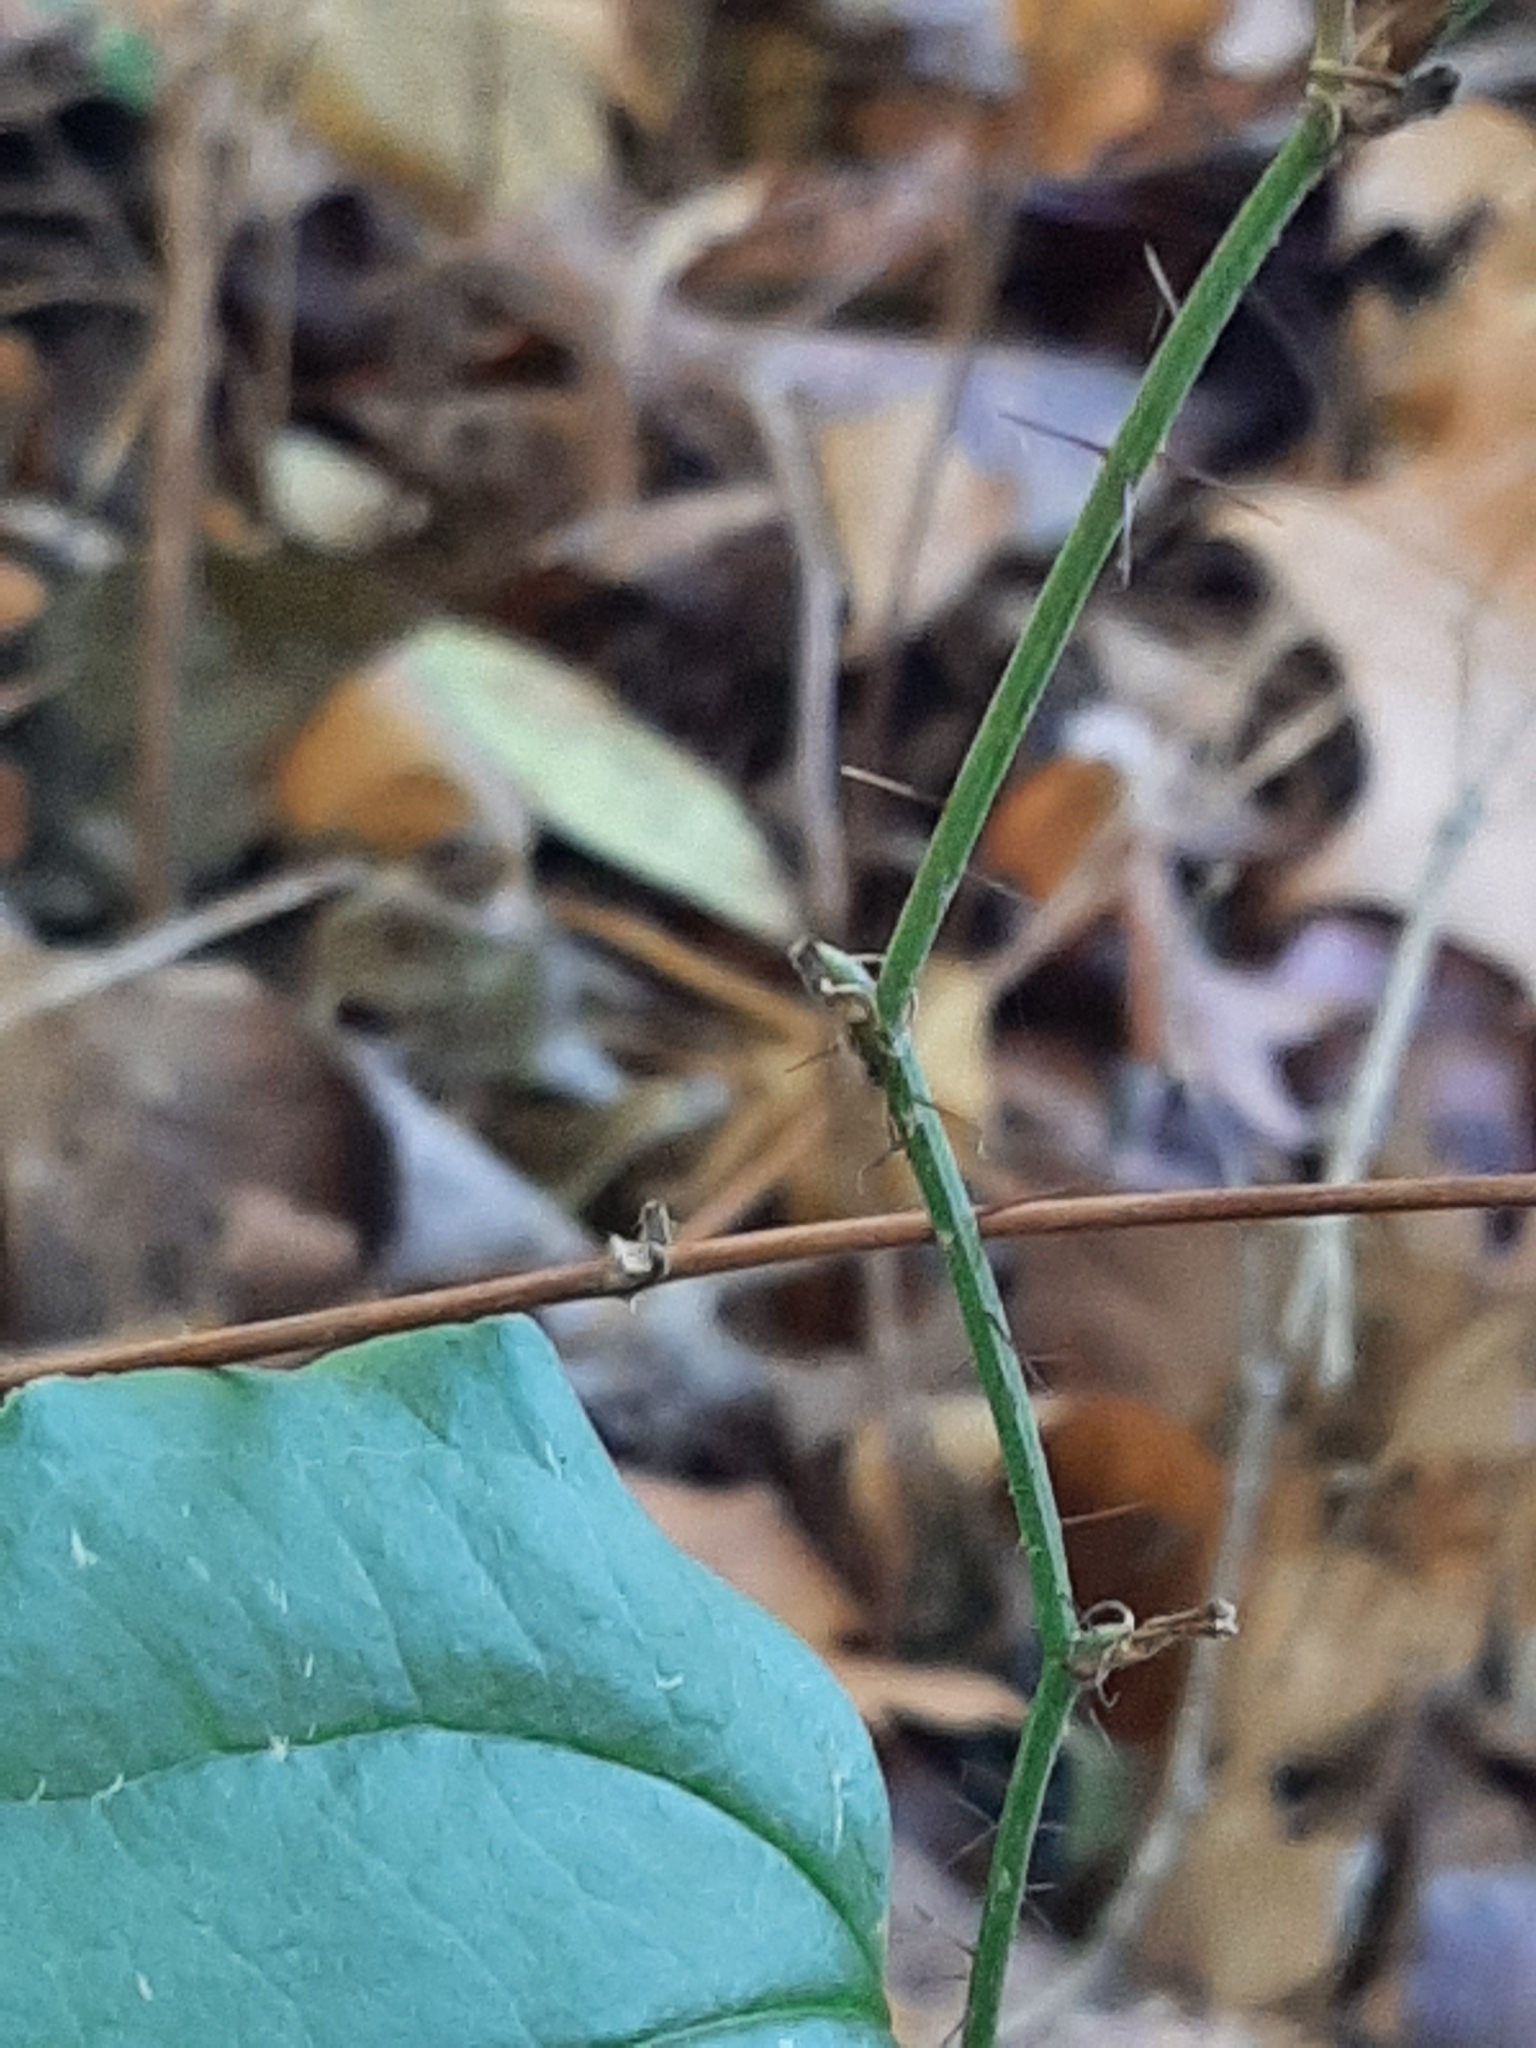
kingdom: Plantae
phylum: Tracheophyta
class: Liliopsida
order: Liliales
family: Smilacaceae
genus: Smilax
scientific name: Smilax tamnoides
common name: Hellfetter
